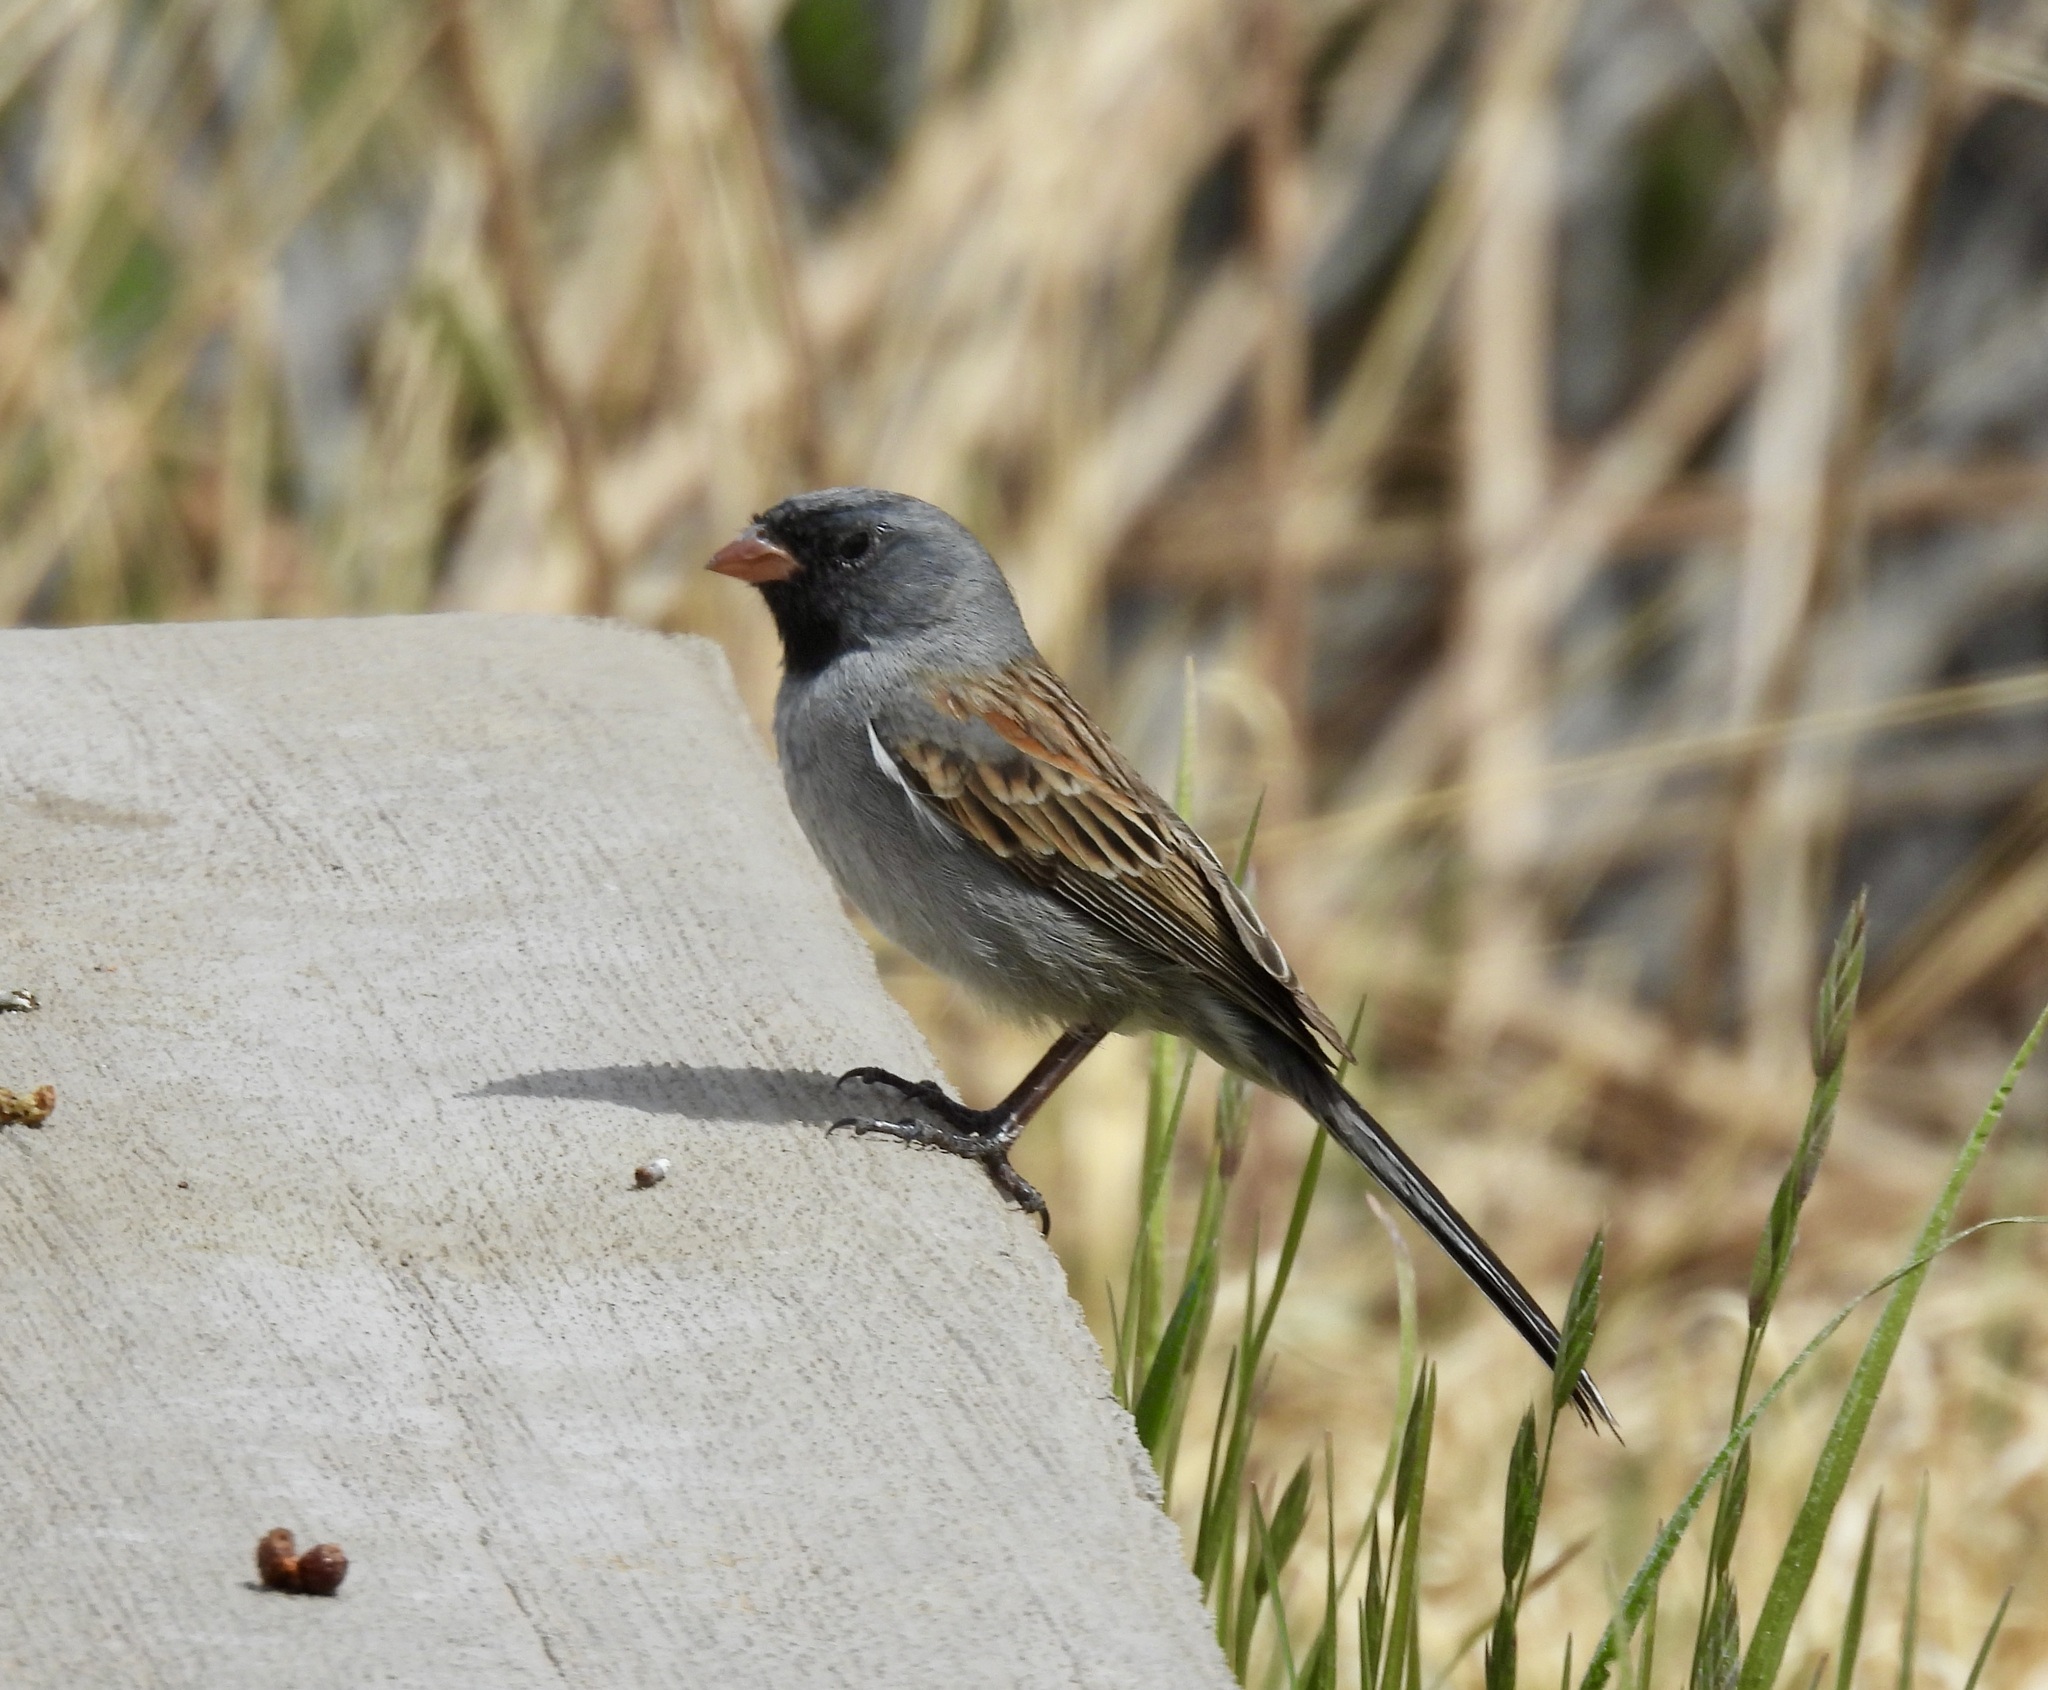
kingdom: Animalia
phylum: Chordata
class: Aves
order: Passeriformes
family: Passerellidae
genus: Spizella
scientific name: Spizella atrogularis
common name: Black-chinned sparrow
